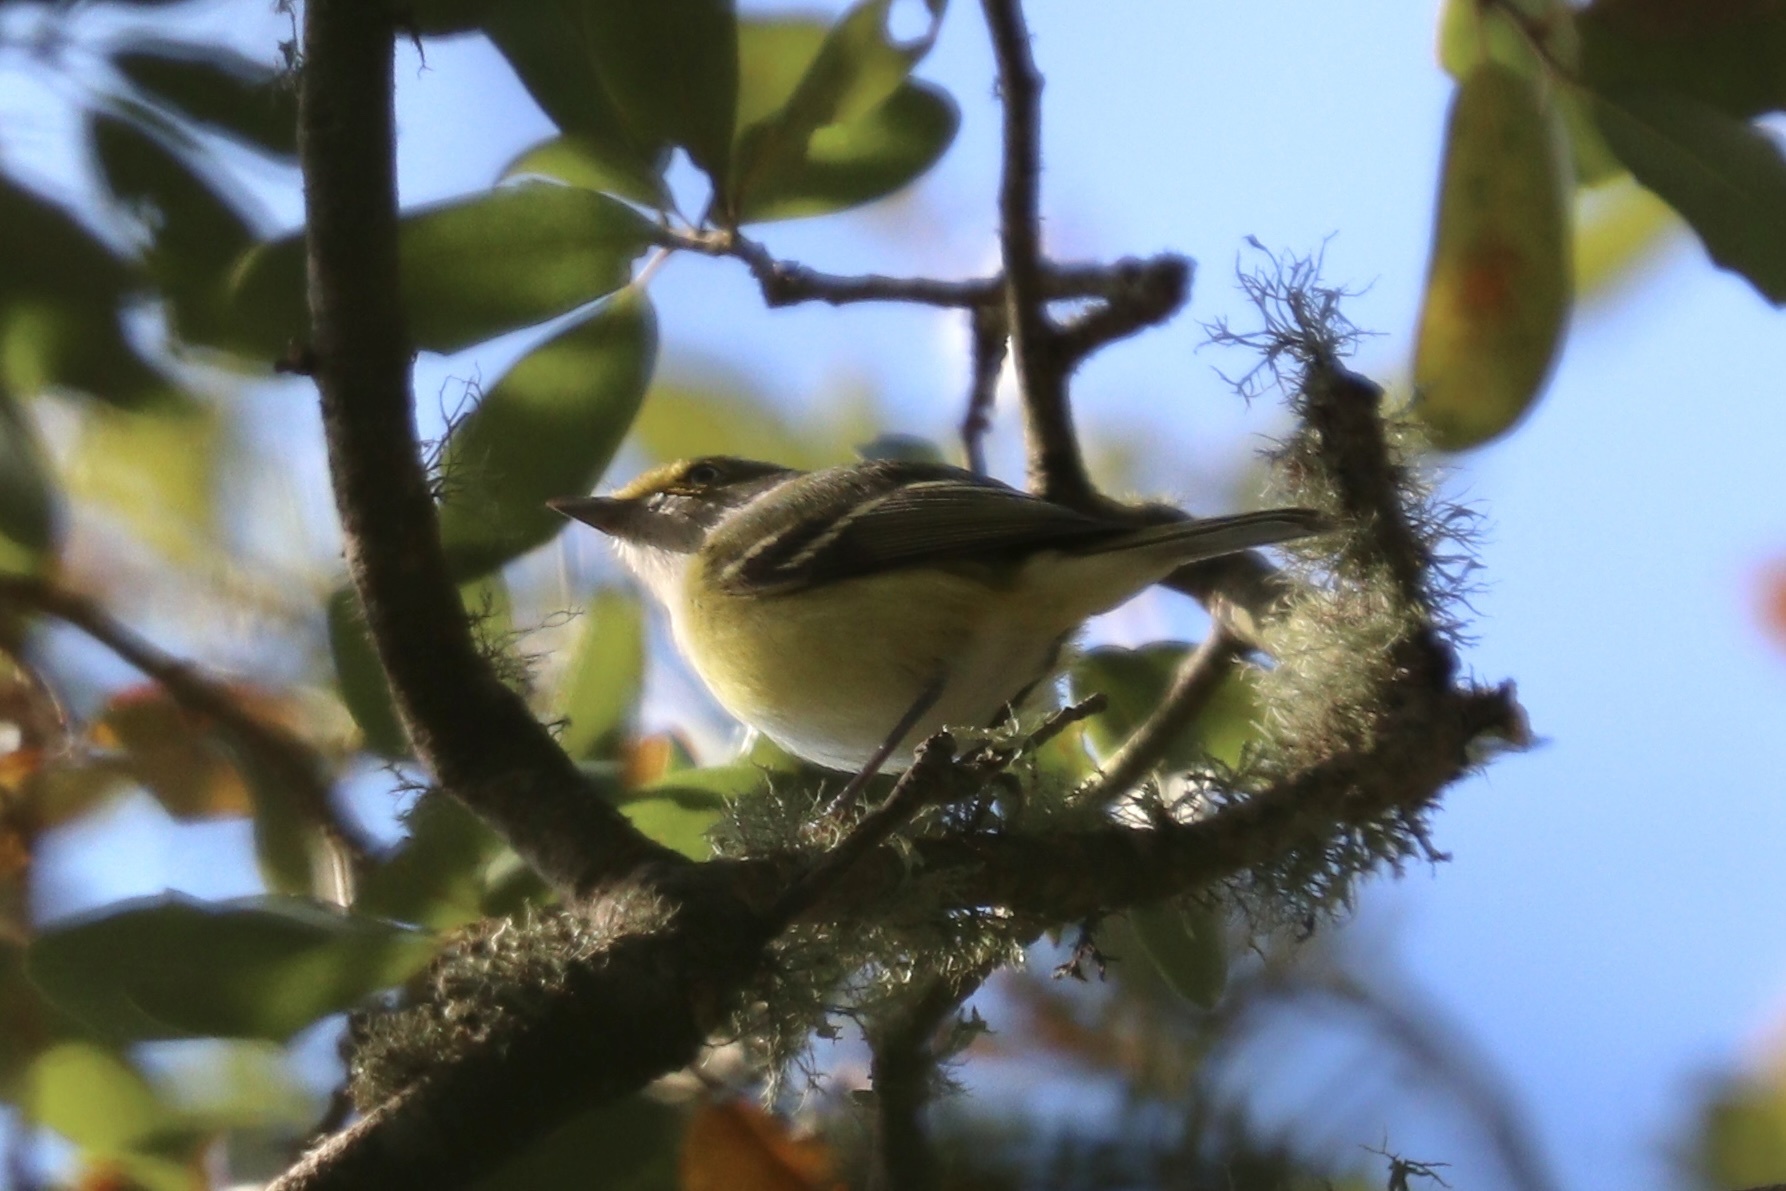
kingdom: Animalia
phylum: Chordata
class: Aves
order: Passeriformes
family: Vireonidae
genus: Vireo
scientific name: Vireo griseus
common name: White-eyed vireo
